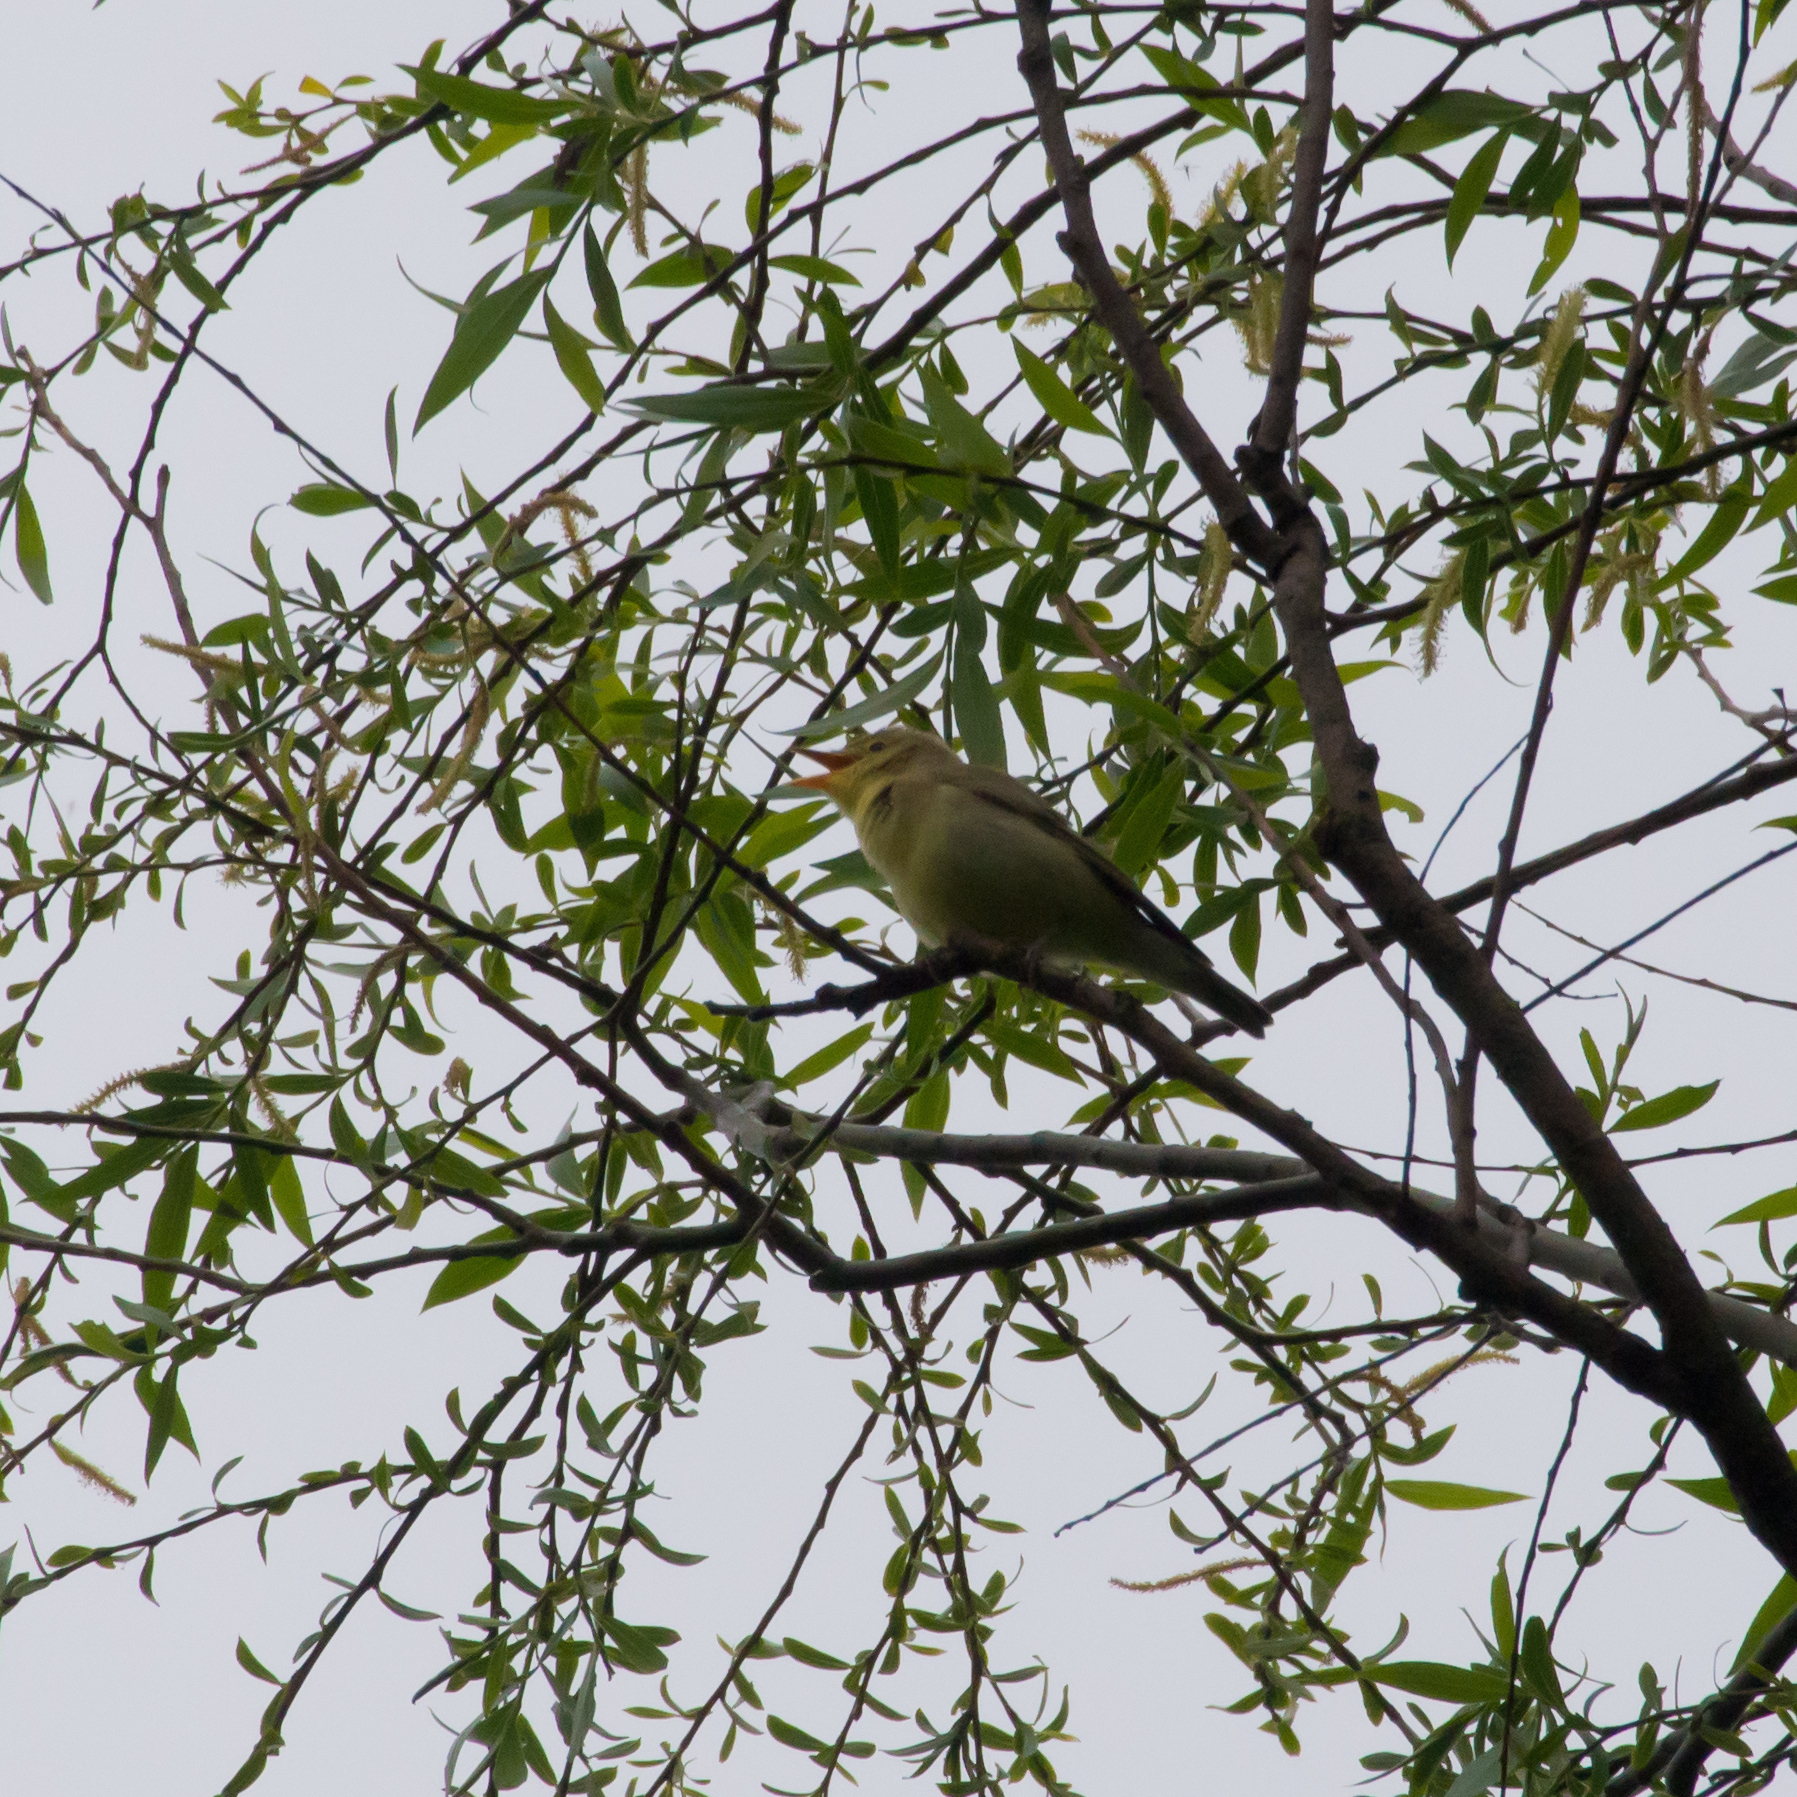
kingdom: Animalia
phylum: Chordata
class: Aves
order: Passeriformes
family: Acrocephalidae
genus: Hippolais
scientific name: Hippolais icterina
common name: Icterine warbler
